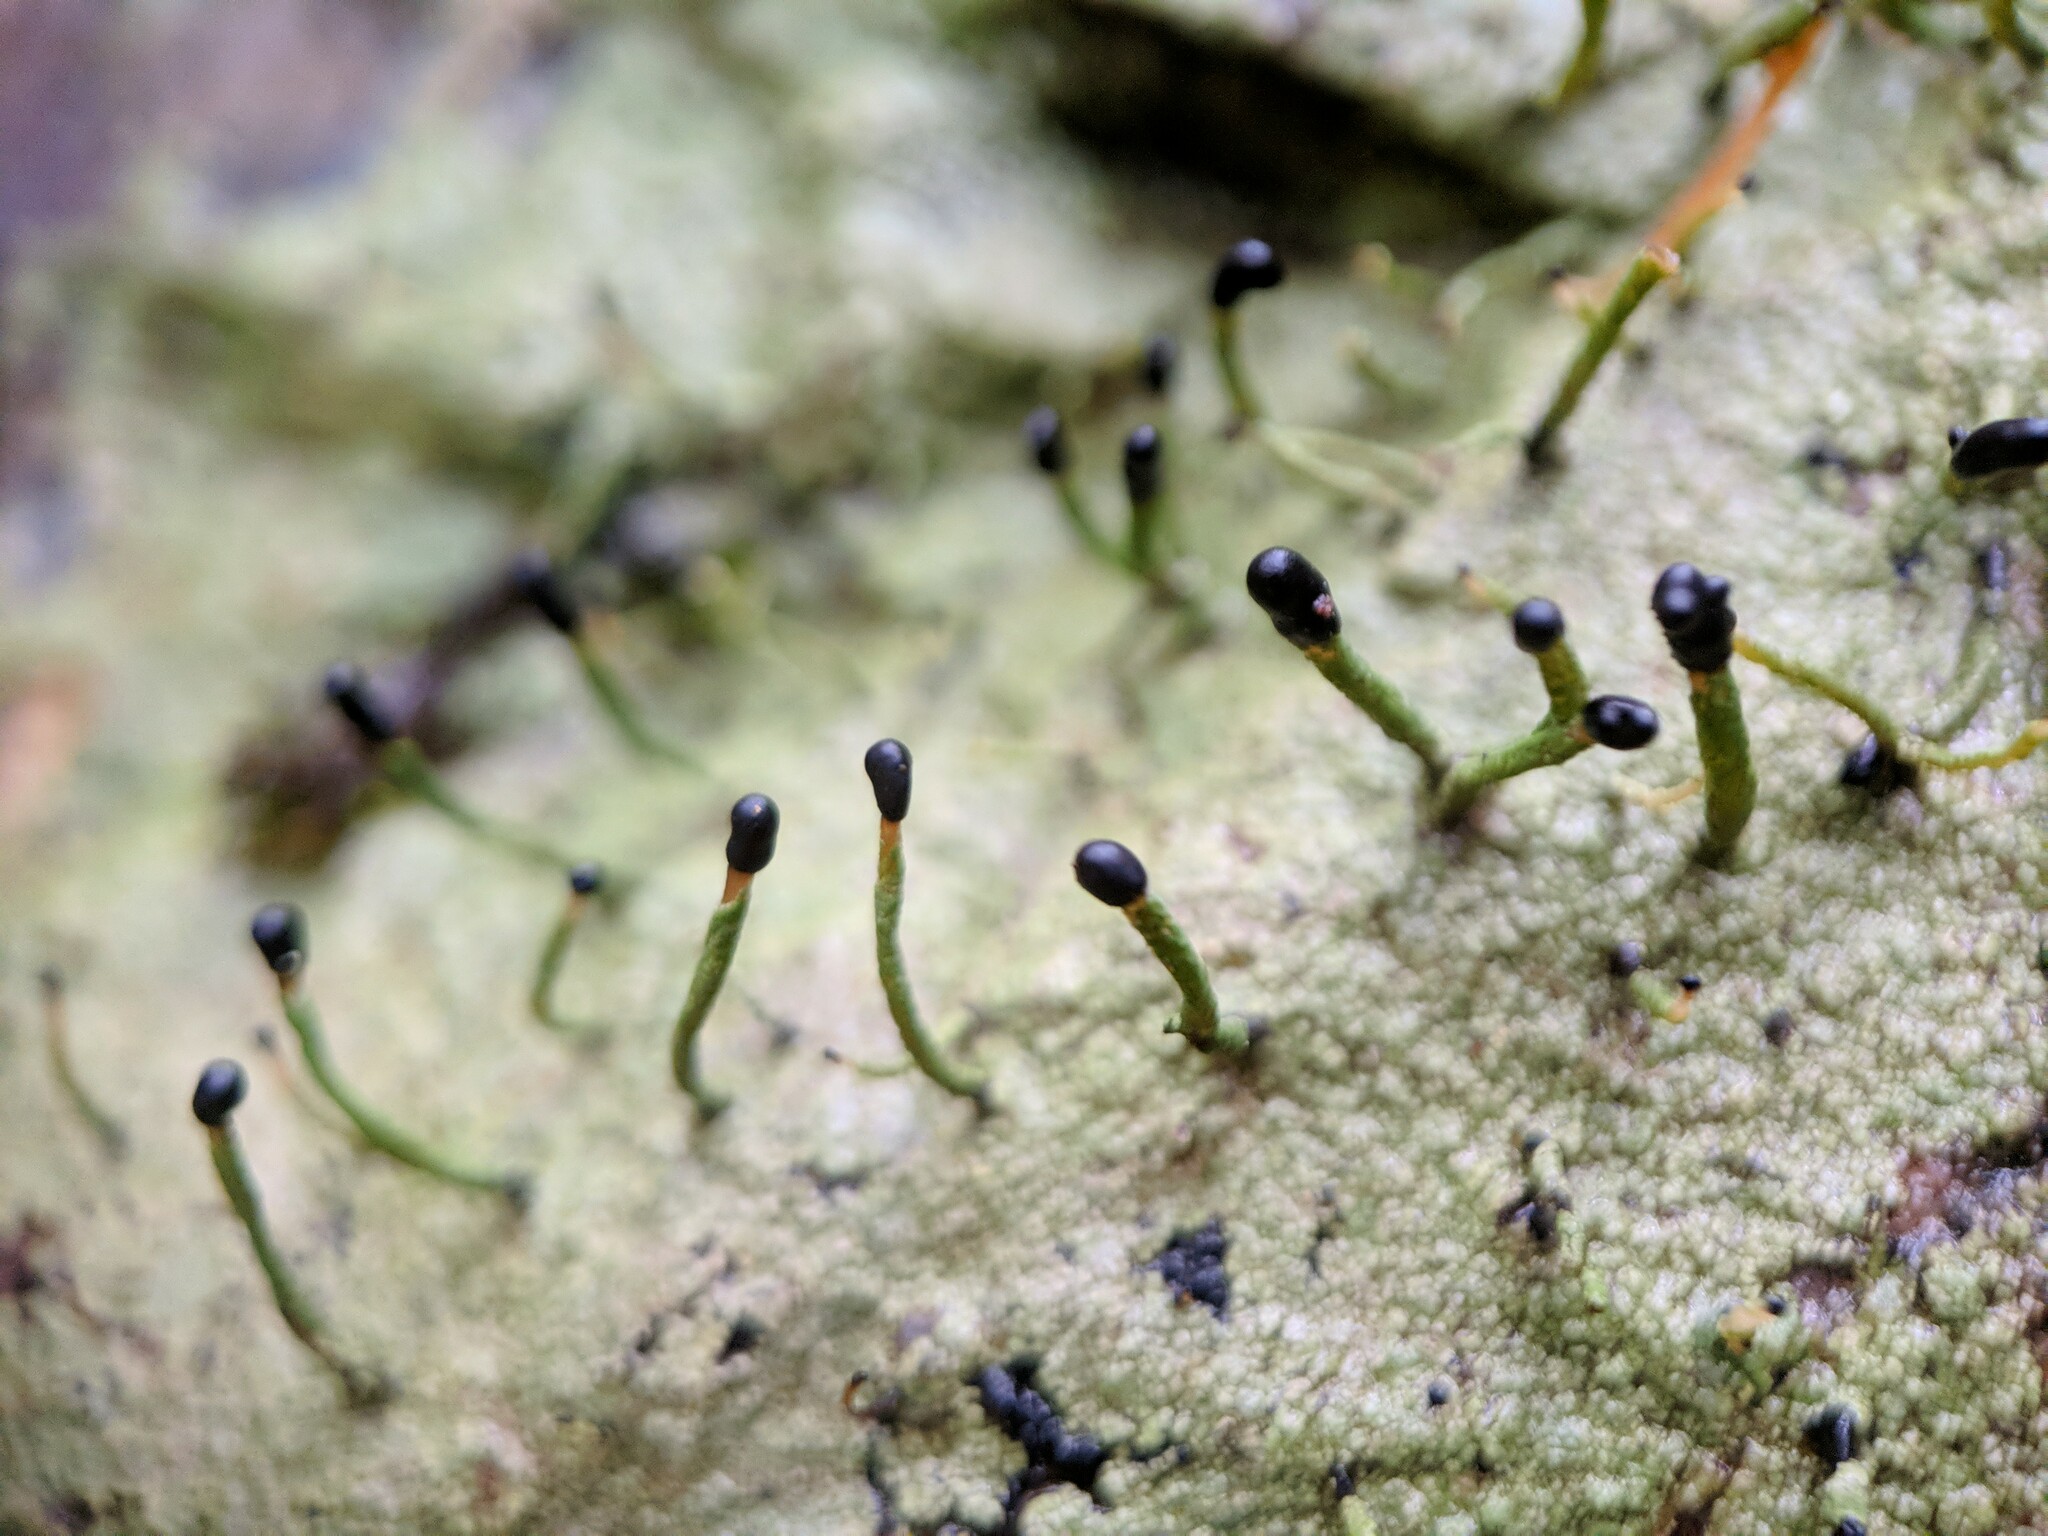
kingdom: Fungi
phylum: Ascomycota
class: Lecanoromycetes
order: Lecanorales
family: Cladoniaceae
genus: Pilophorus
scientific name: Pilophorus clavatus
